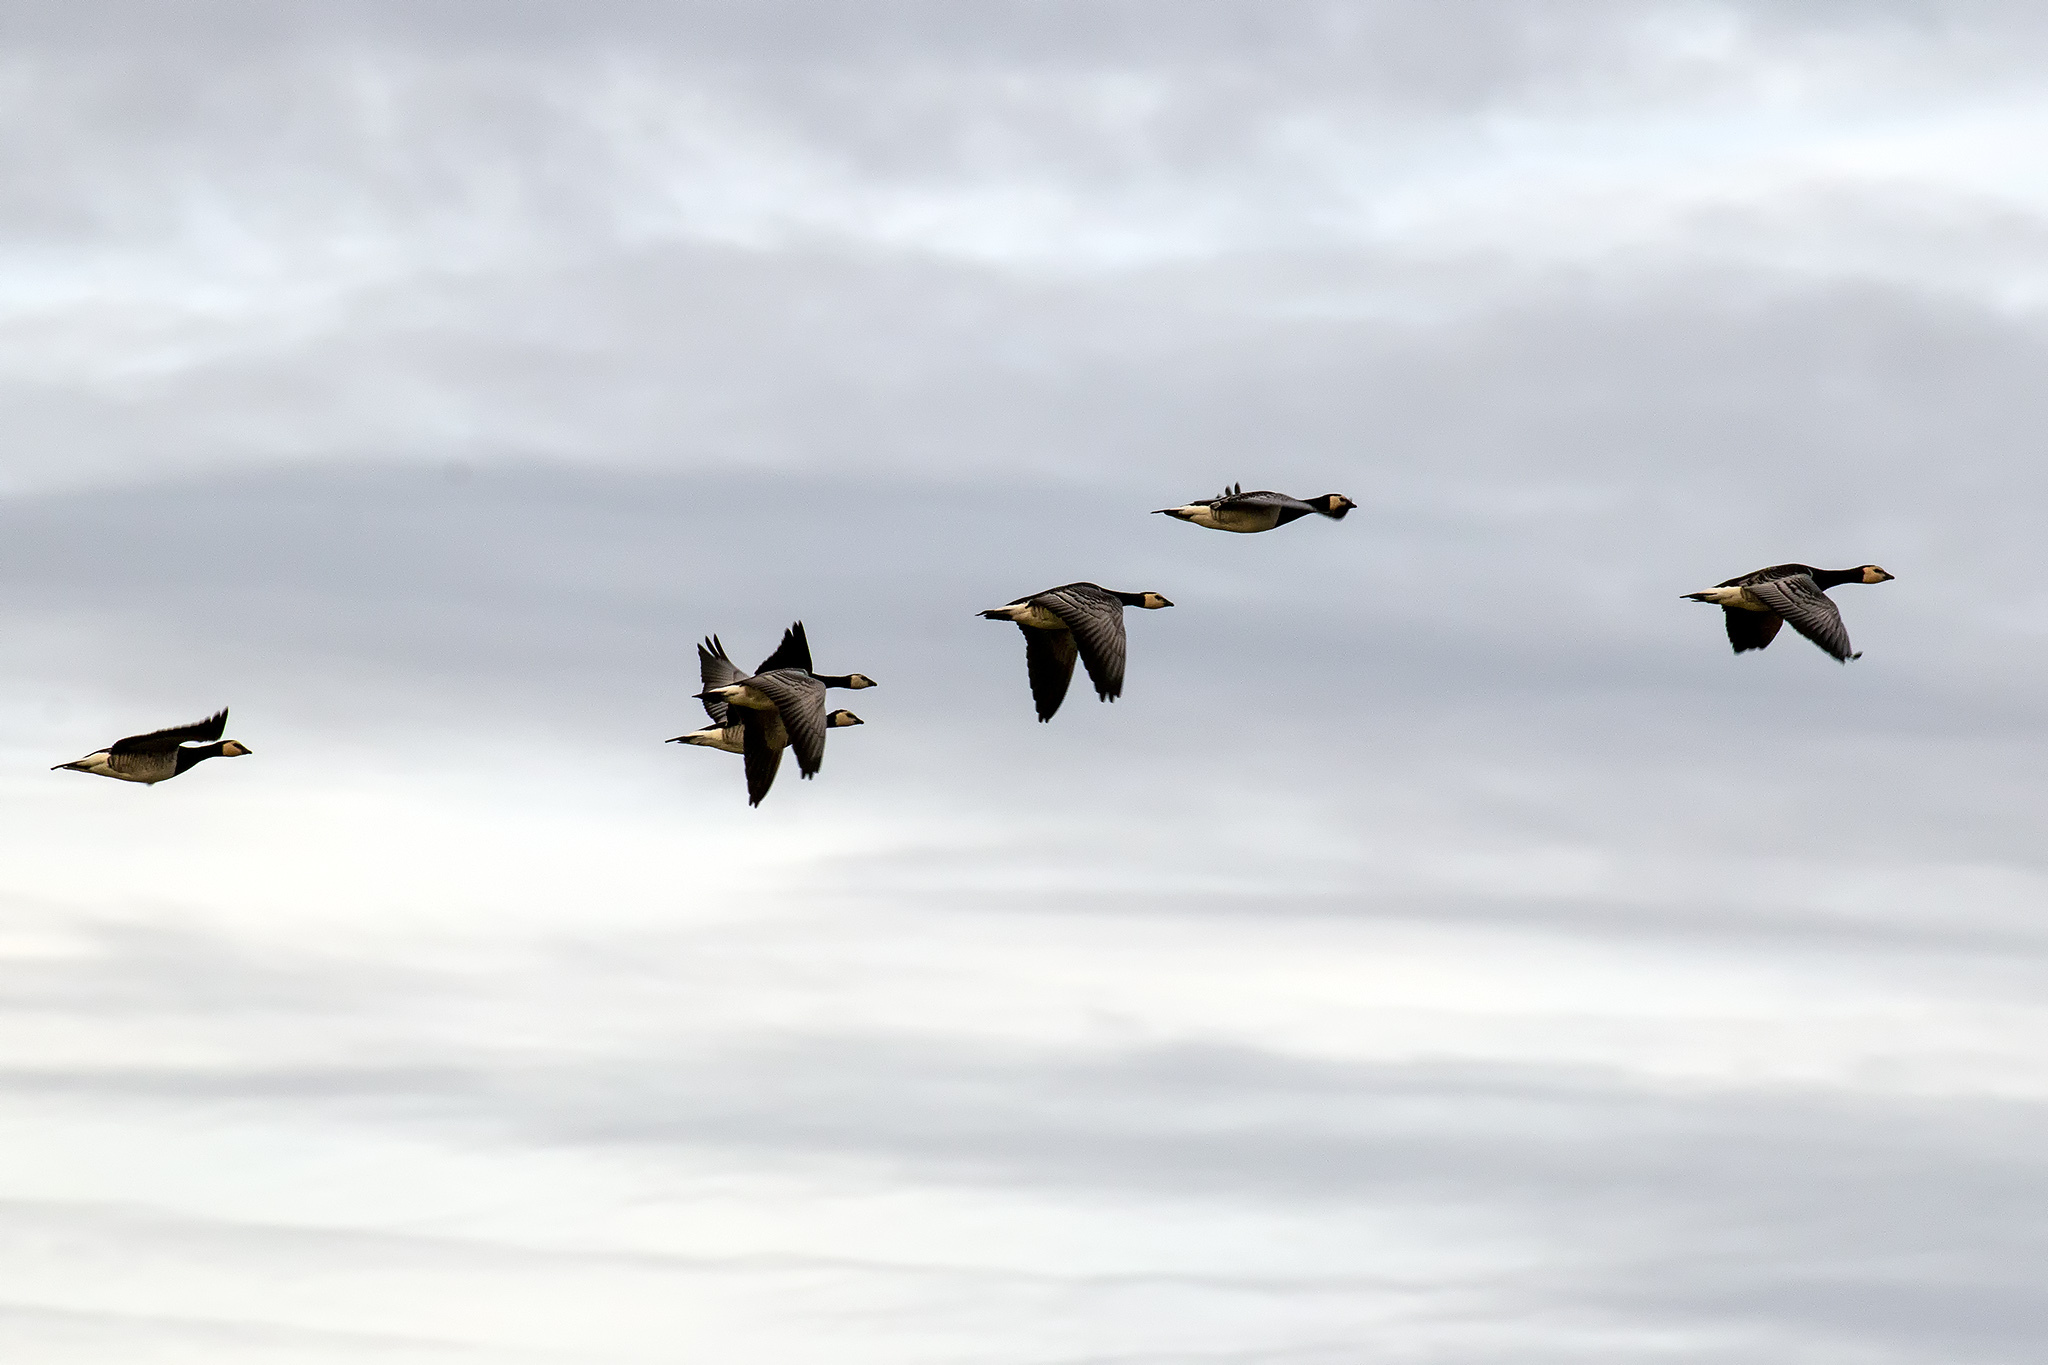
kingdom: Animalia
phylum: Chordata
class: Aves
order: Anseriformes
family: Anatidae
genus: Branta
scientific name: Branta leucopsis
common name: Barnacle goose
